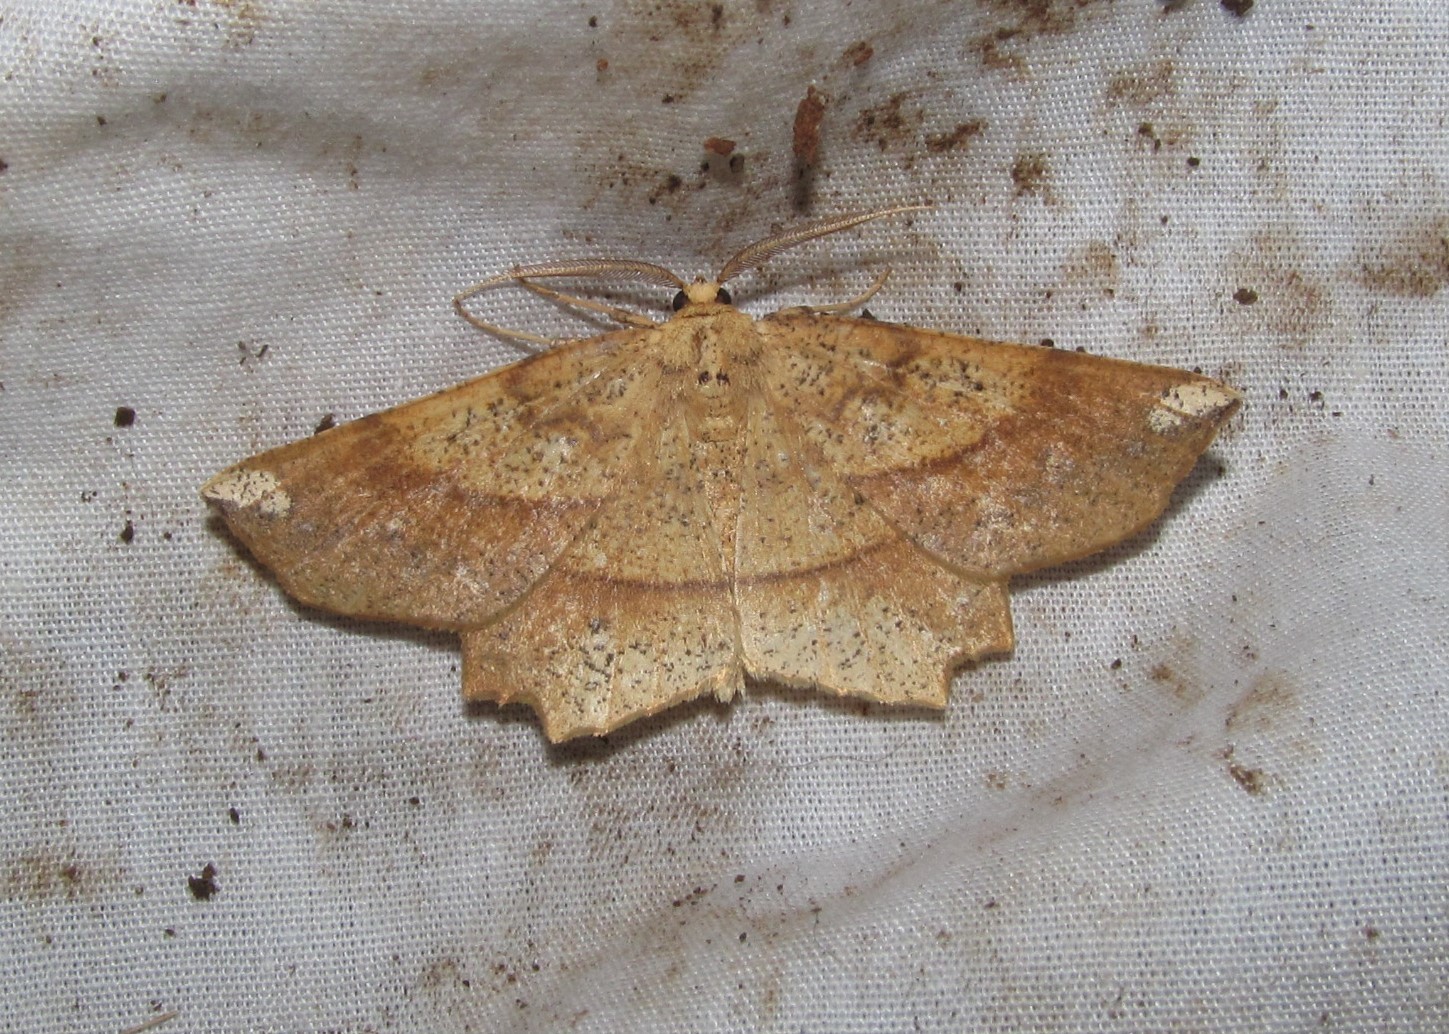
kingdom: Animalia
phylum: Arthropoda
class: Insecta
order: Lepidoptera
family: Geometridae
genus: Euchlaena
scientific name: Euchlaena amoenaria
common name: Deep yellow euchlaena
